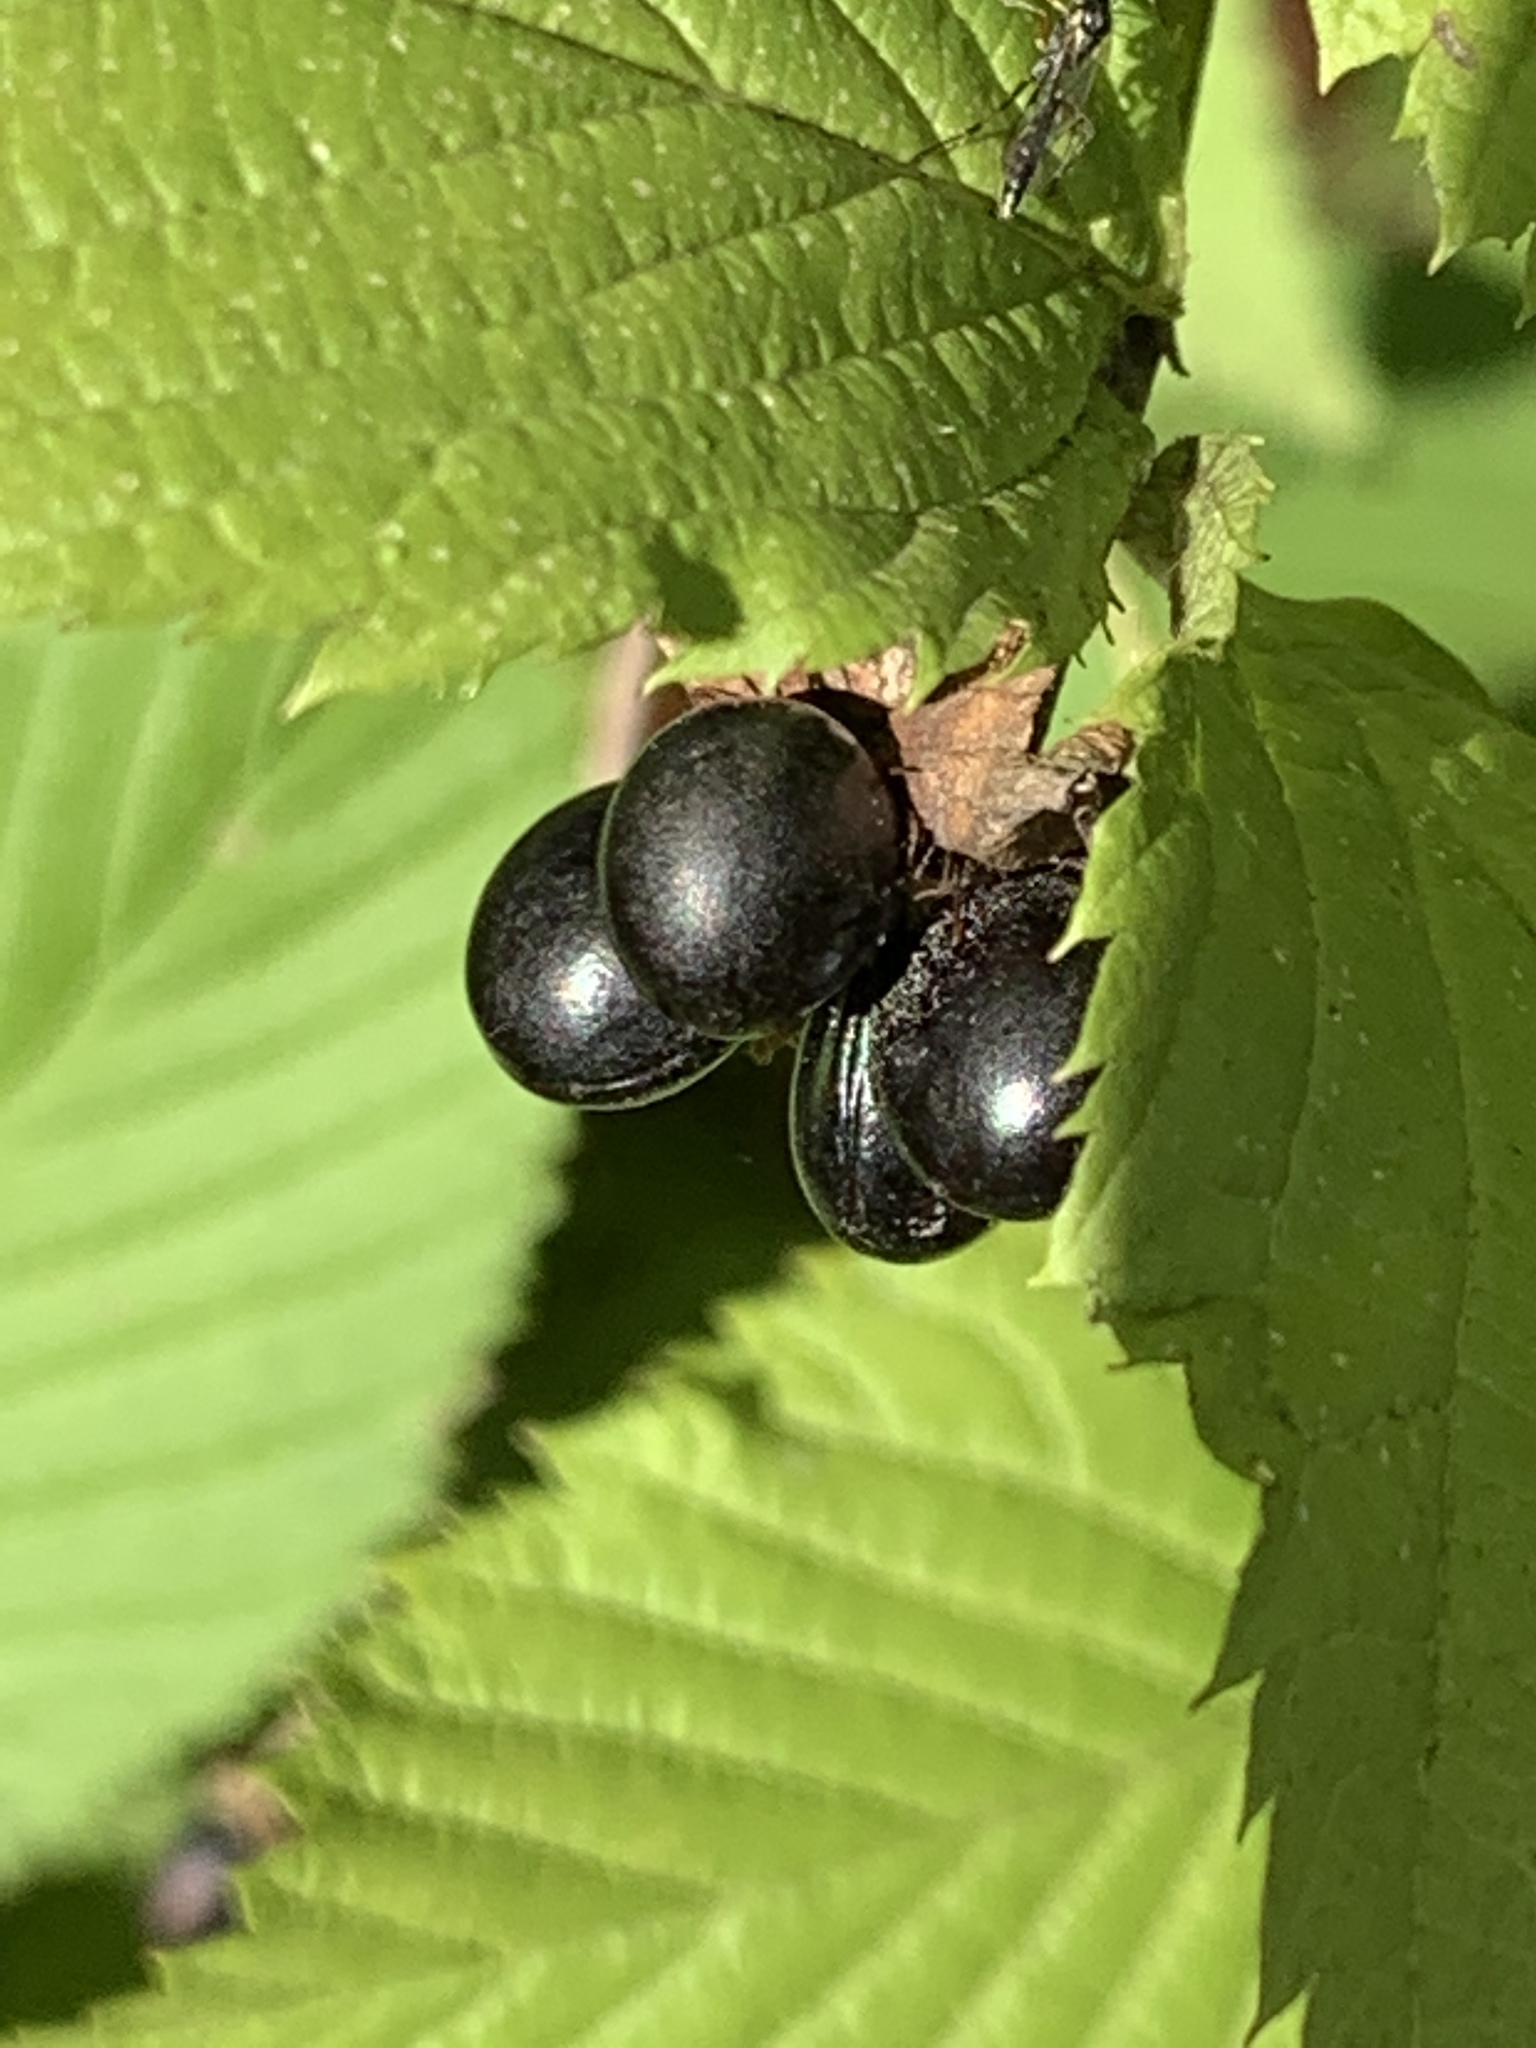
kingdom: Plantae
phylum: Tracheophyta
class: Magnoliopsida
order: Rosales
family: Rosaceae
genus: Rhodotypos
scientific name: Rhodotypos scandens
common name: Jetbead
